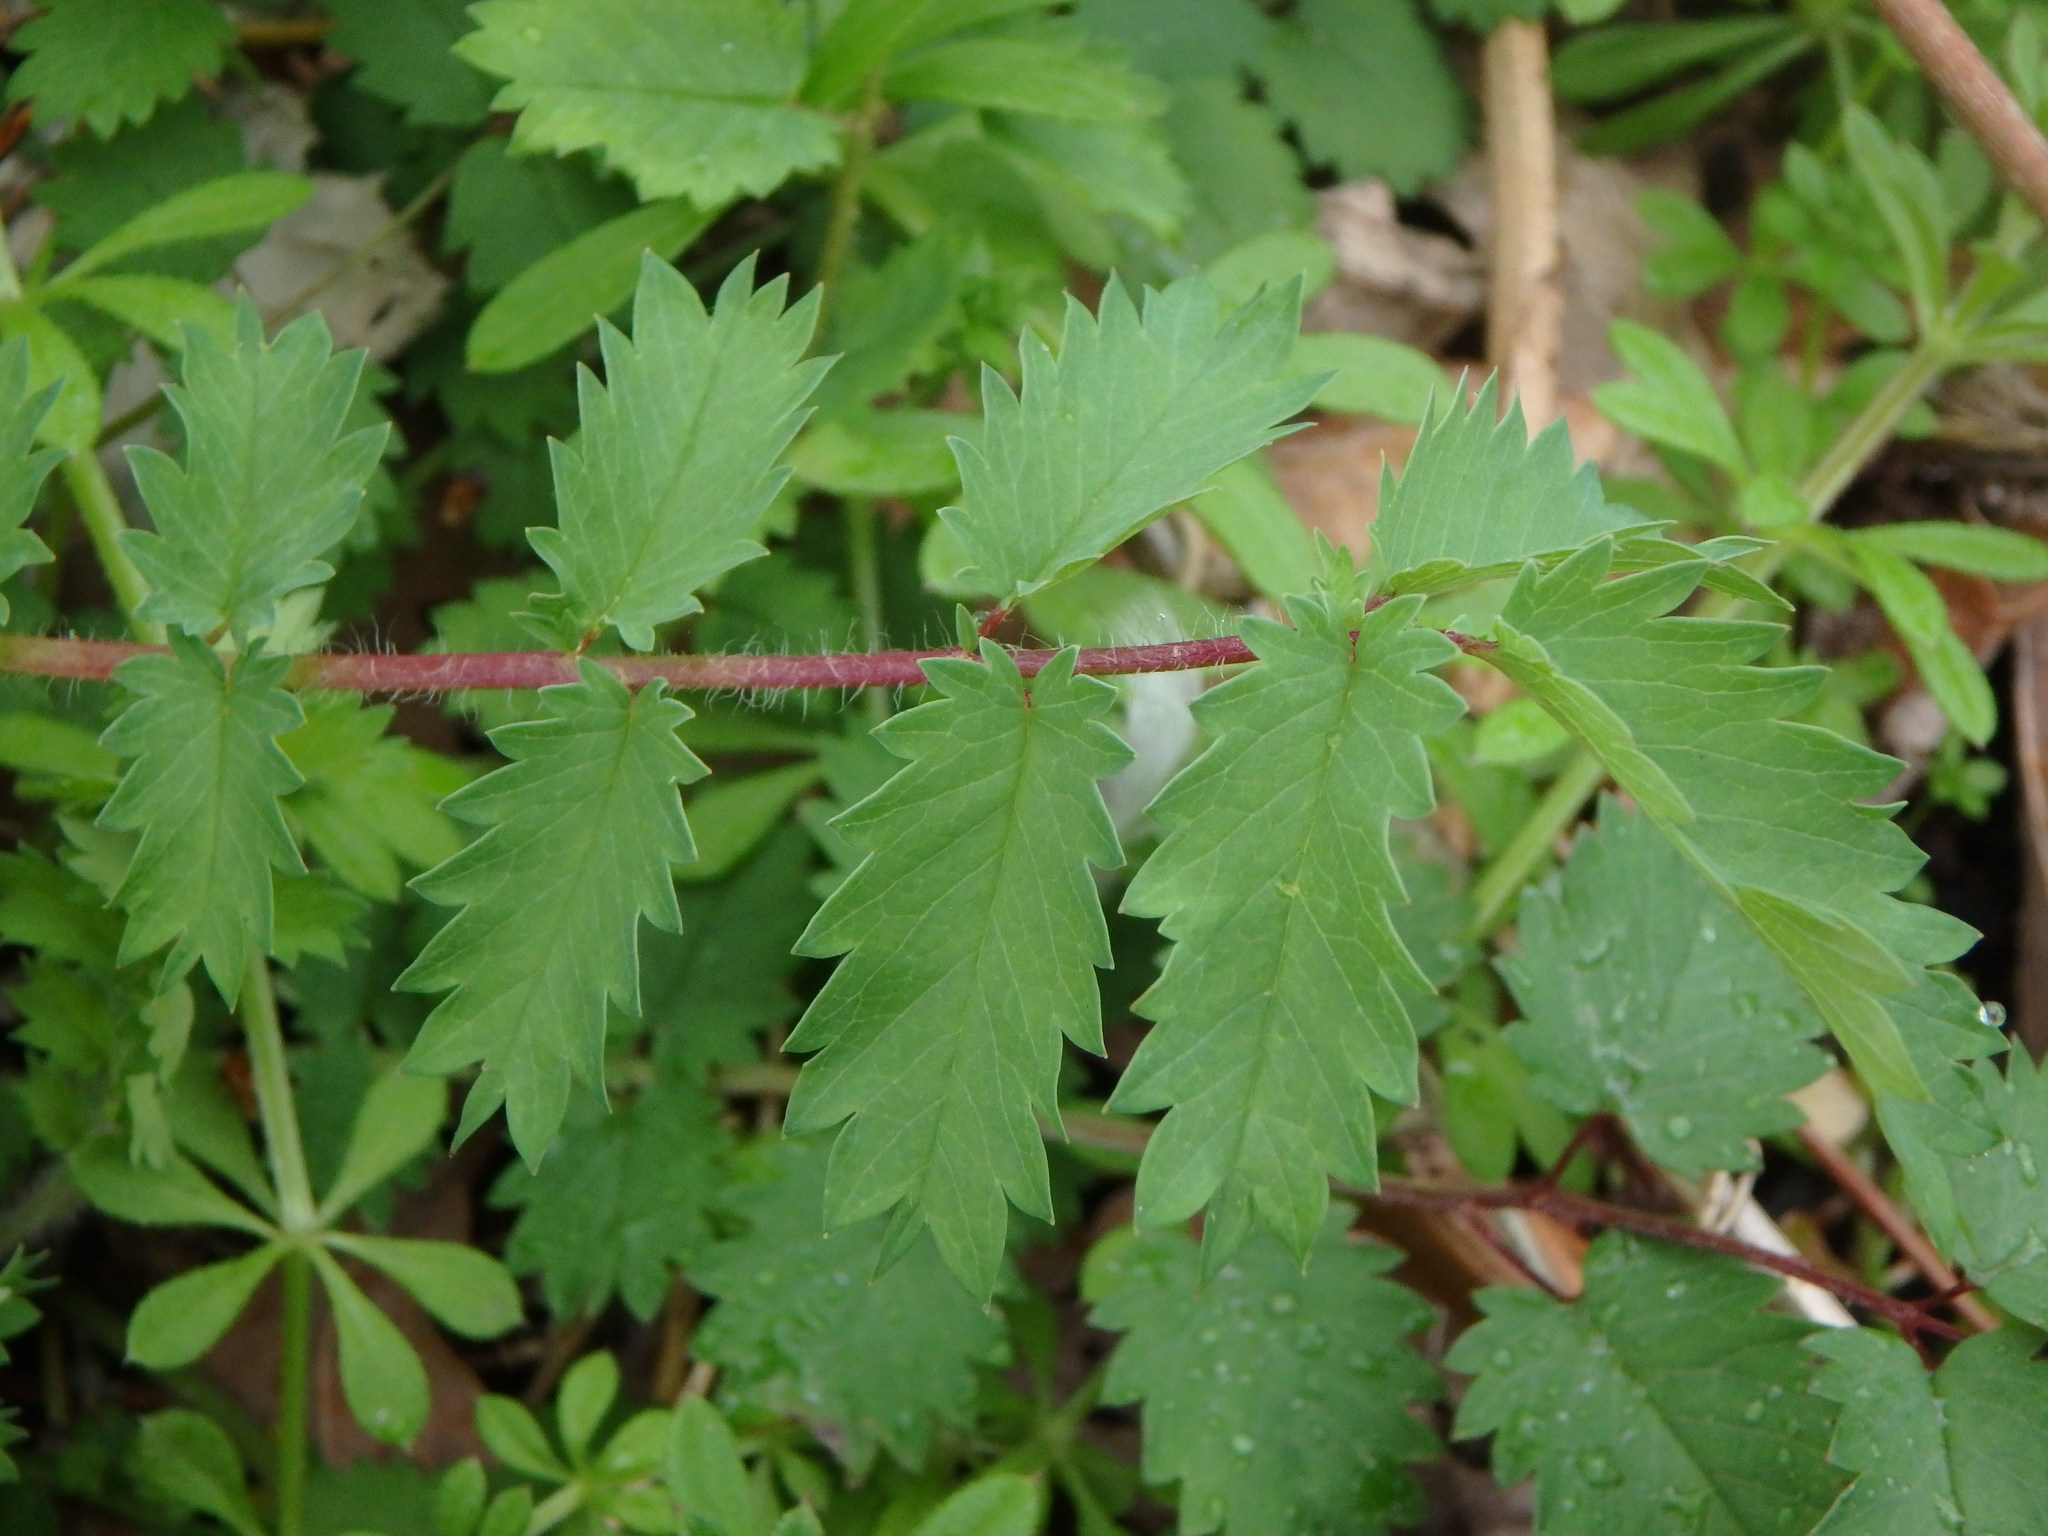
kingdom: Plantae
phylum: Tracheophyta
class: Magnoliopsida
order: Rosales
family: Rosaceae
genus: Poterium
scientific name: Poterium sanguisorba
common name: Salad burnet
